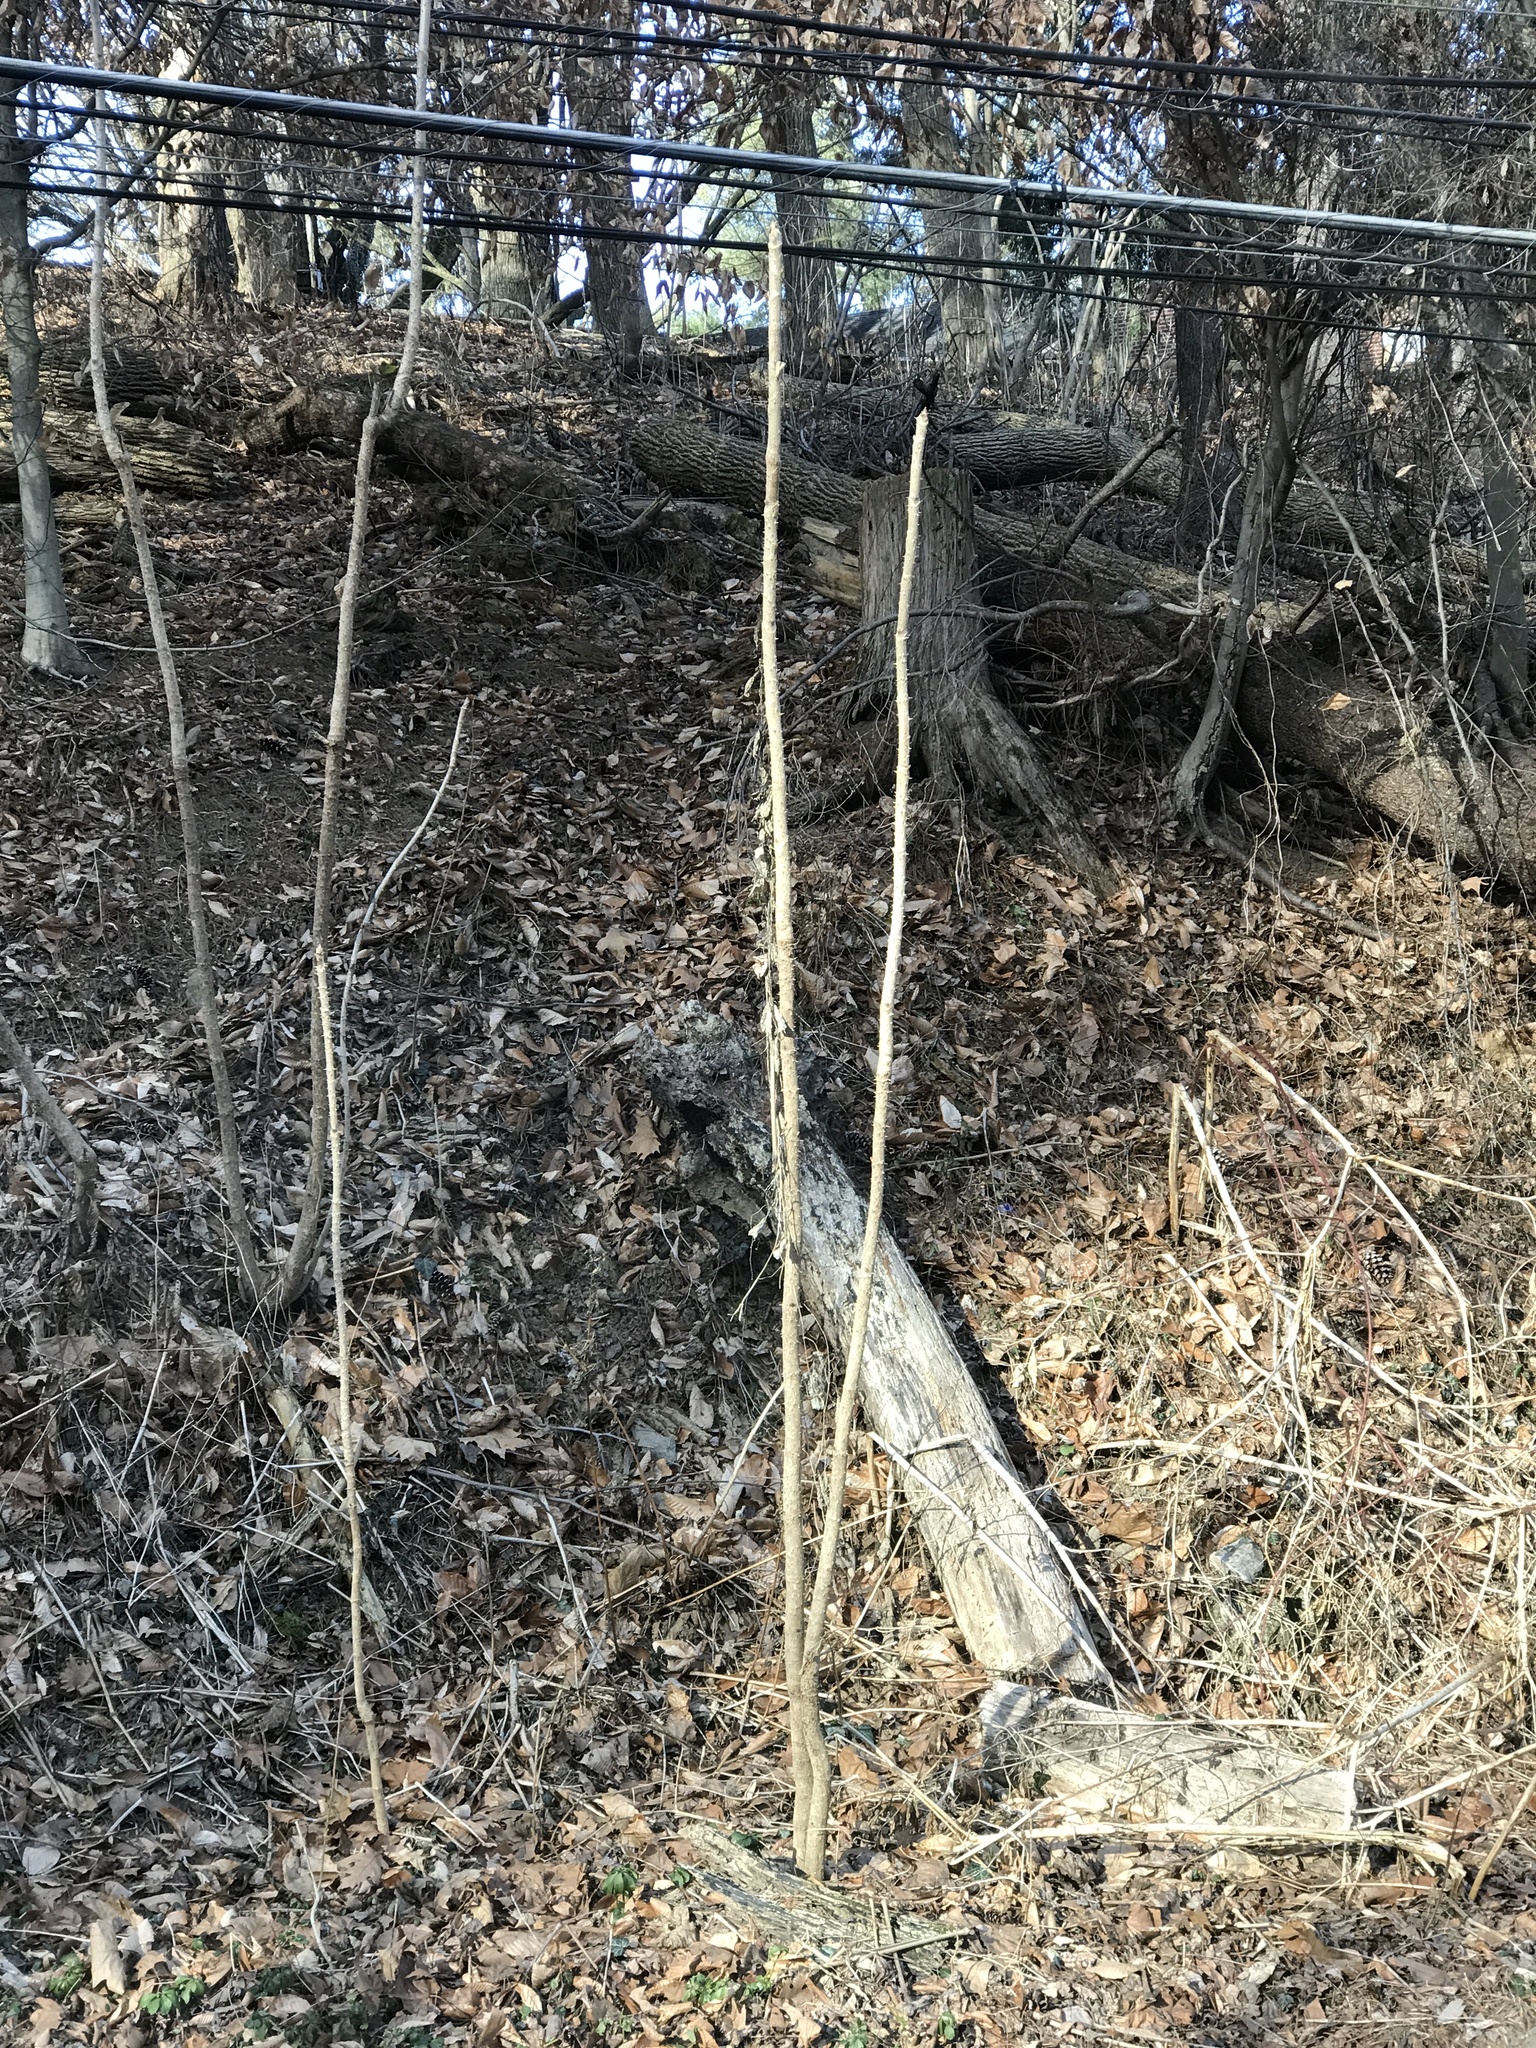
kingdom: Plantae
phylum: Tracheophyta
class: Magnoliopsida
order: Apiales
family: Araliaceae
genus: Aralia
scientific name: Aralia elata
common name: Japanese angelica-tree
